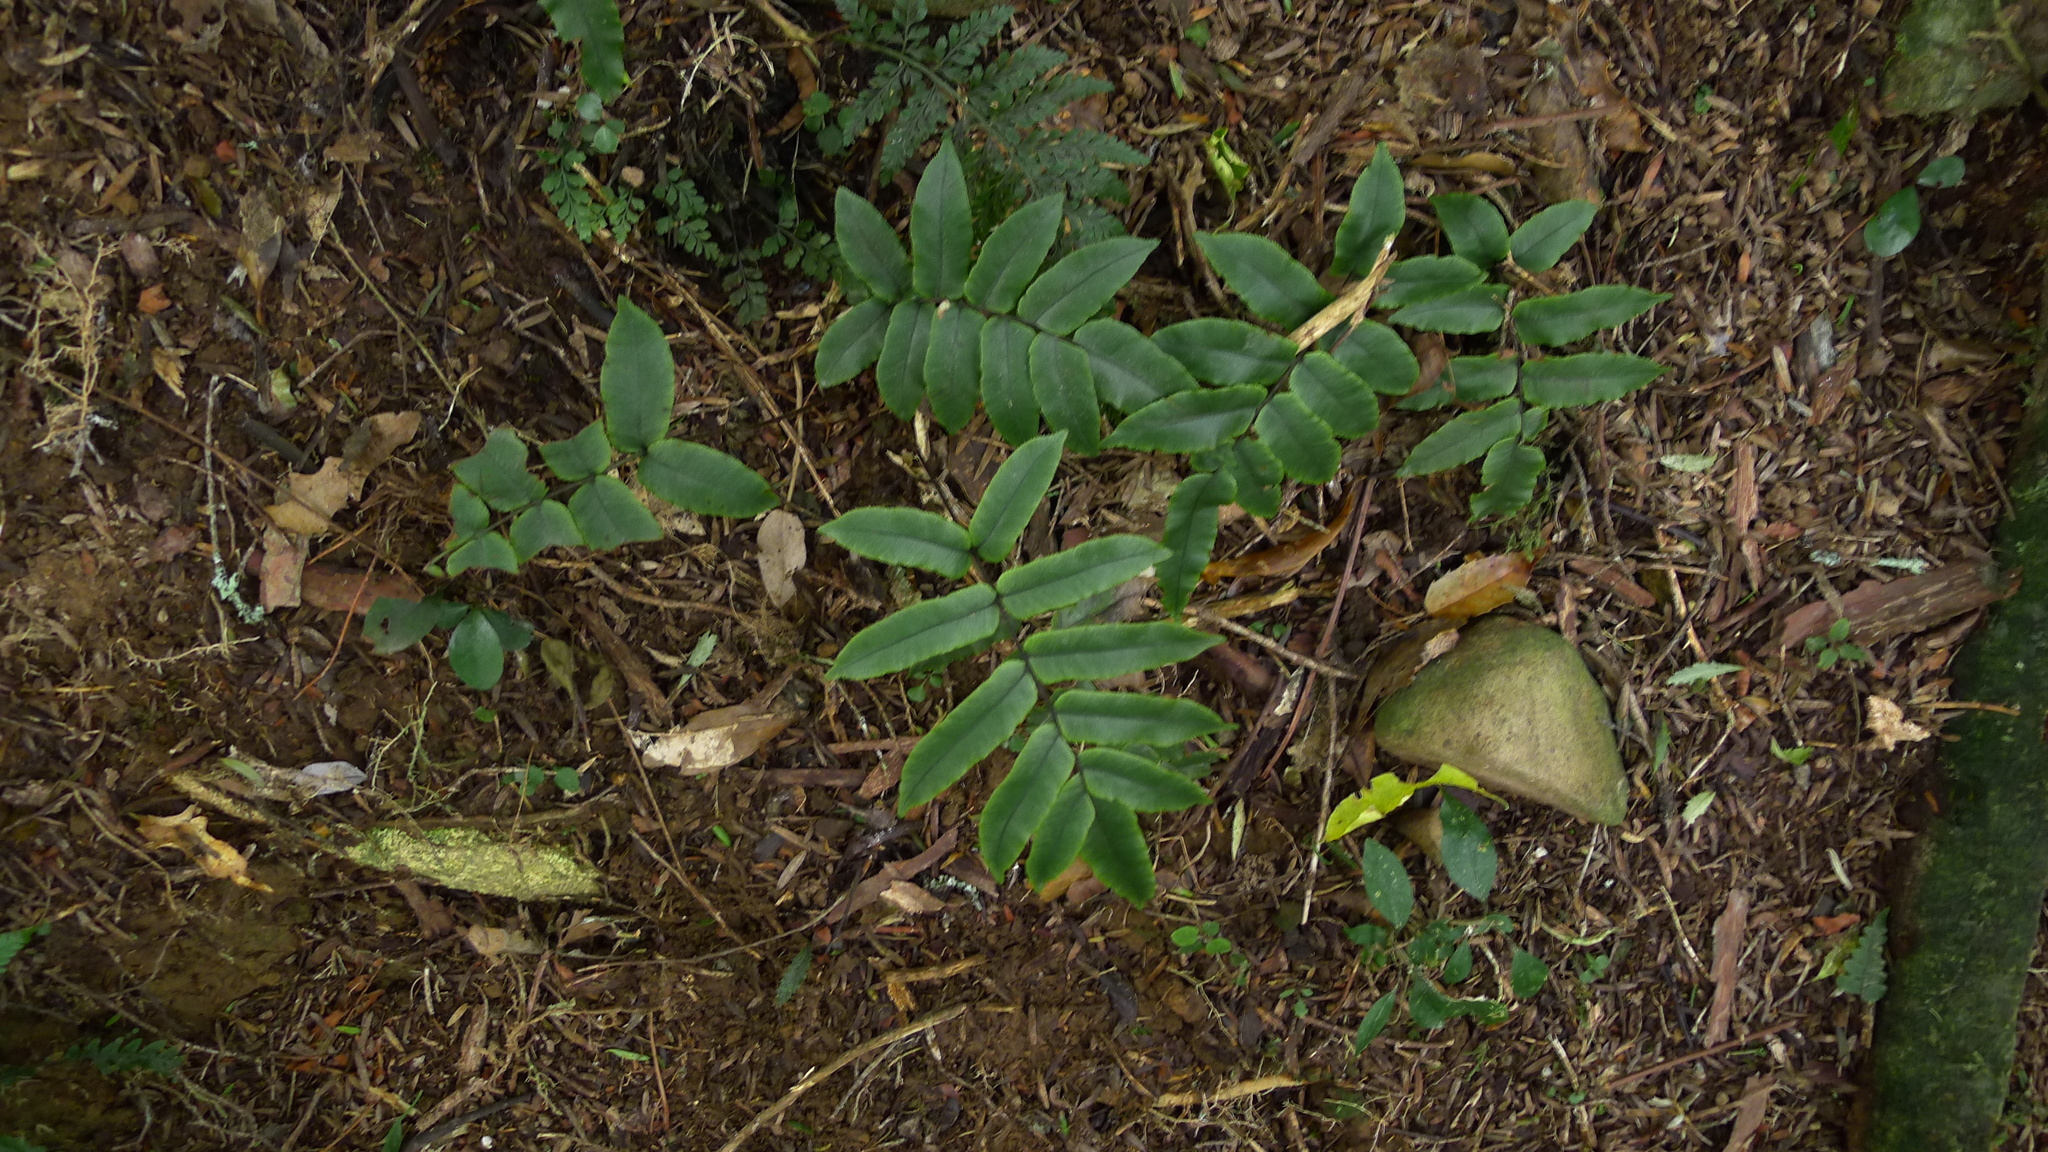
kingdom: Plantae
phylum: Tracheophyta
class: Polypodiopsida
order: Polypodiales
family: Blechnaceae
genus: Parablechnum
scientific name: Parablechnum procerum
